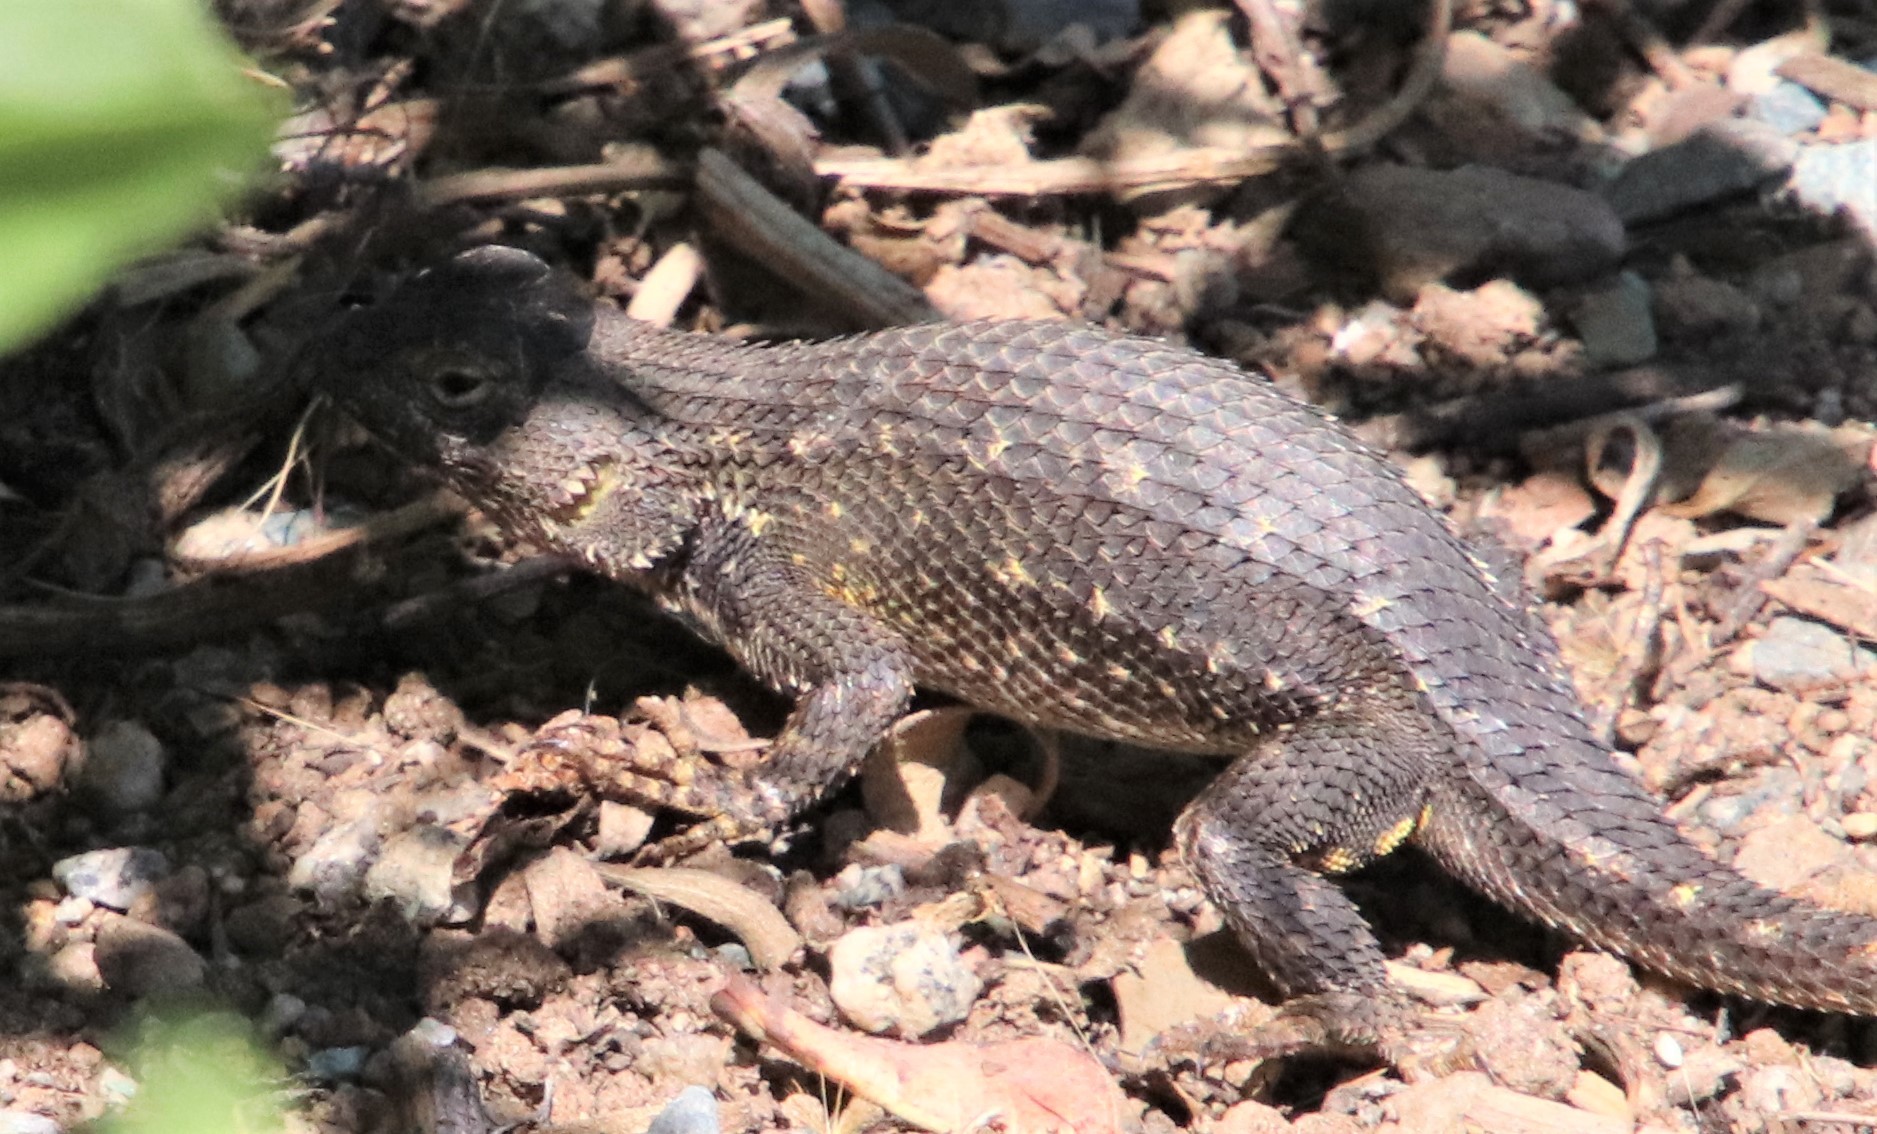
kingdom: Animalia
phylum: Chordata
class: Squamata
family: Phrynosomatidae
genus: Sceloporus
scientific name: Sceloporus occidentalis
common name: Western fence lizard
